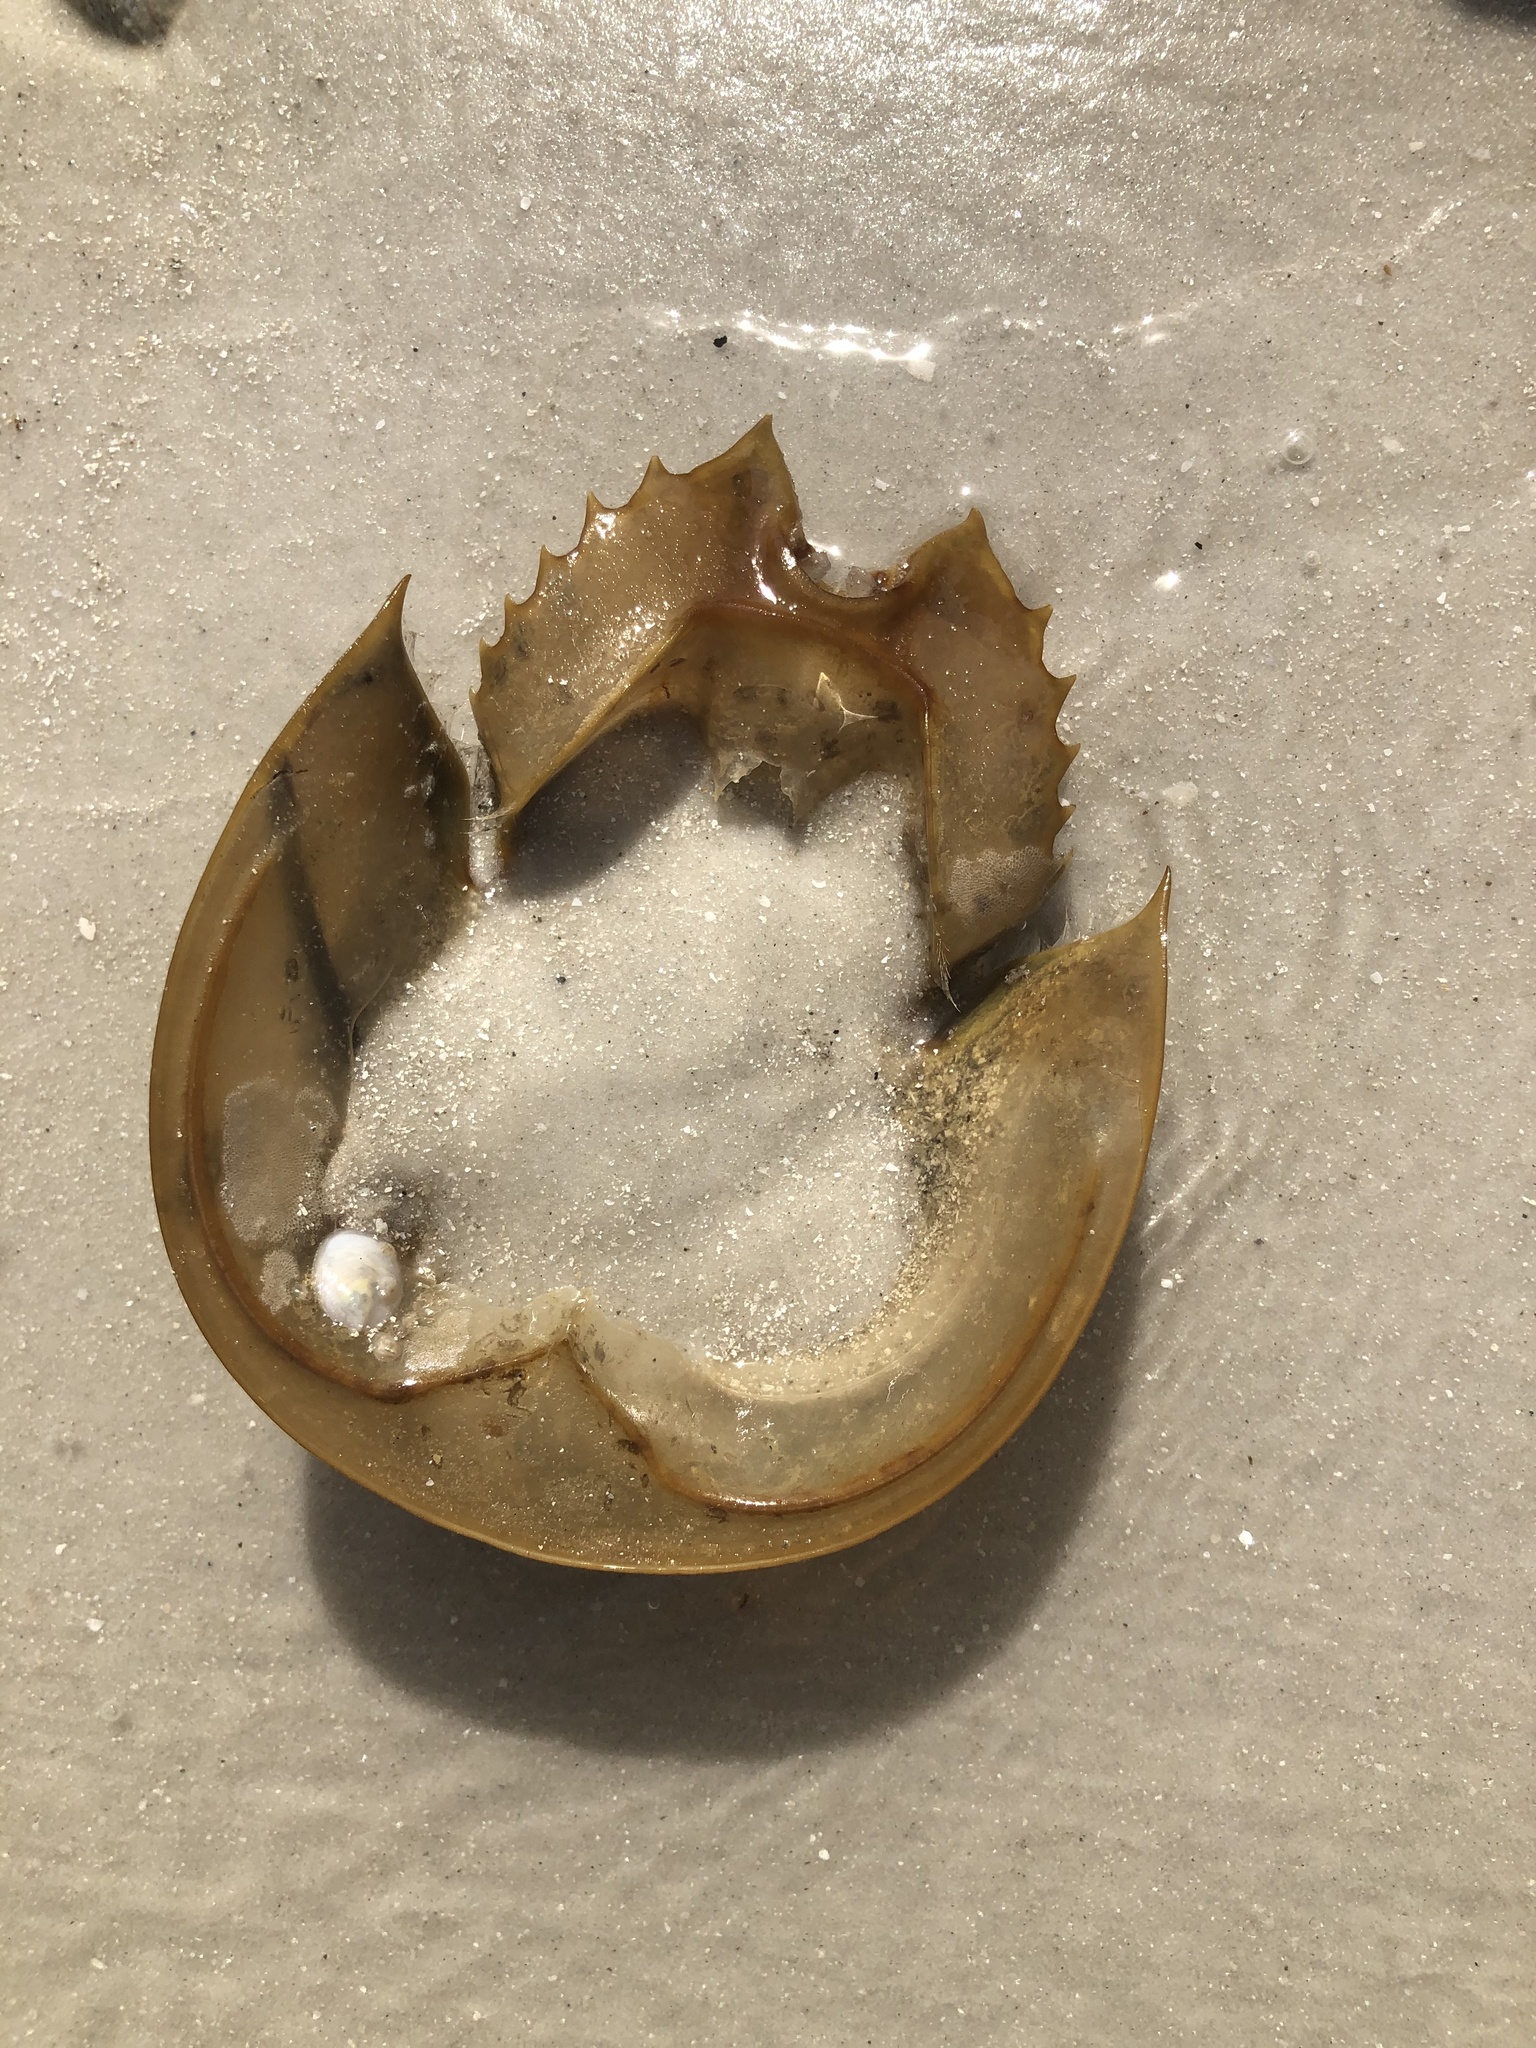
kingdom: Animalia
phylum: Arthropoda
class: Merostomata
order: Xiphosurida
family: Limulidae
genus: Limulus
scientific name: Limulus polyphemus
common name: Horseshoe crab
